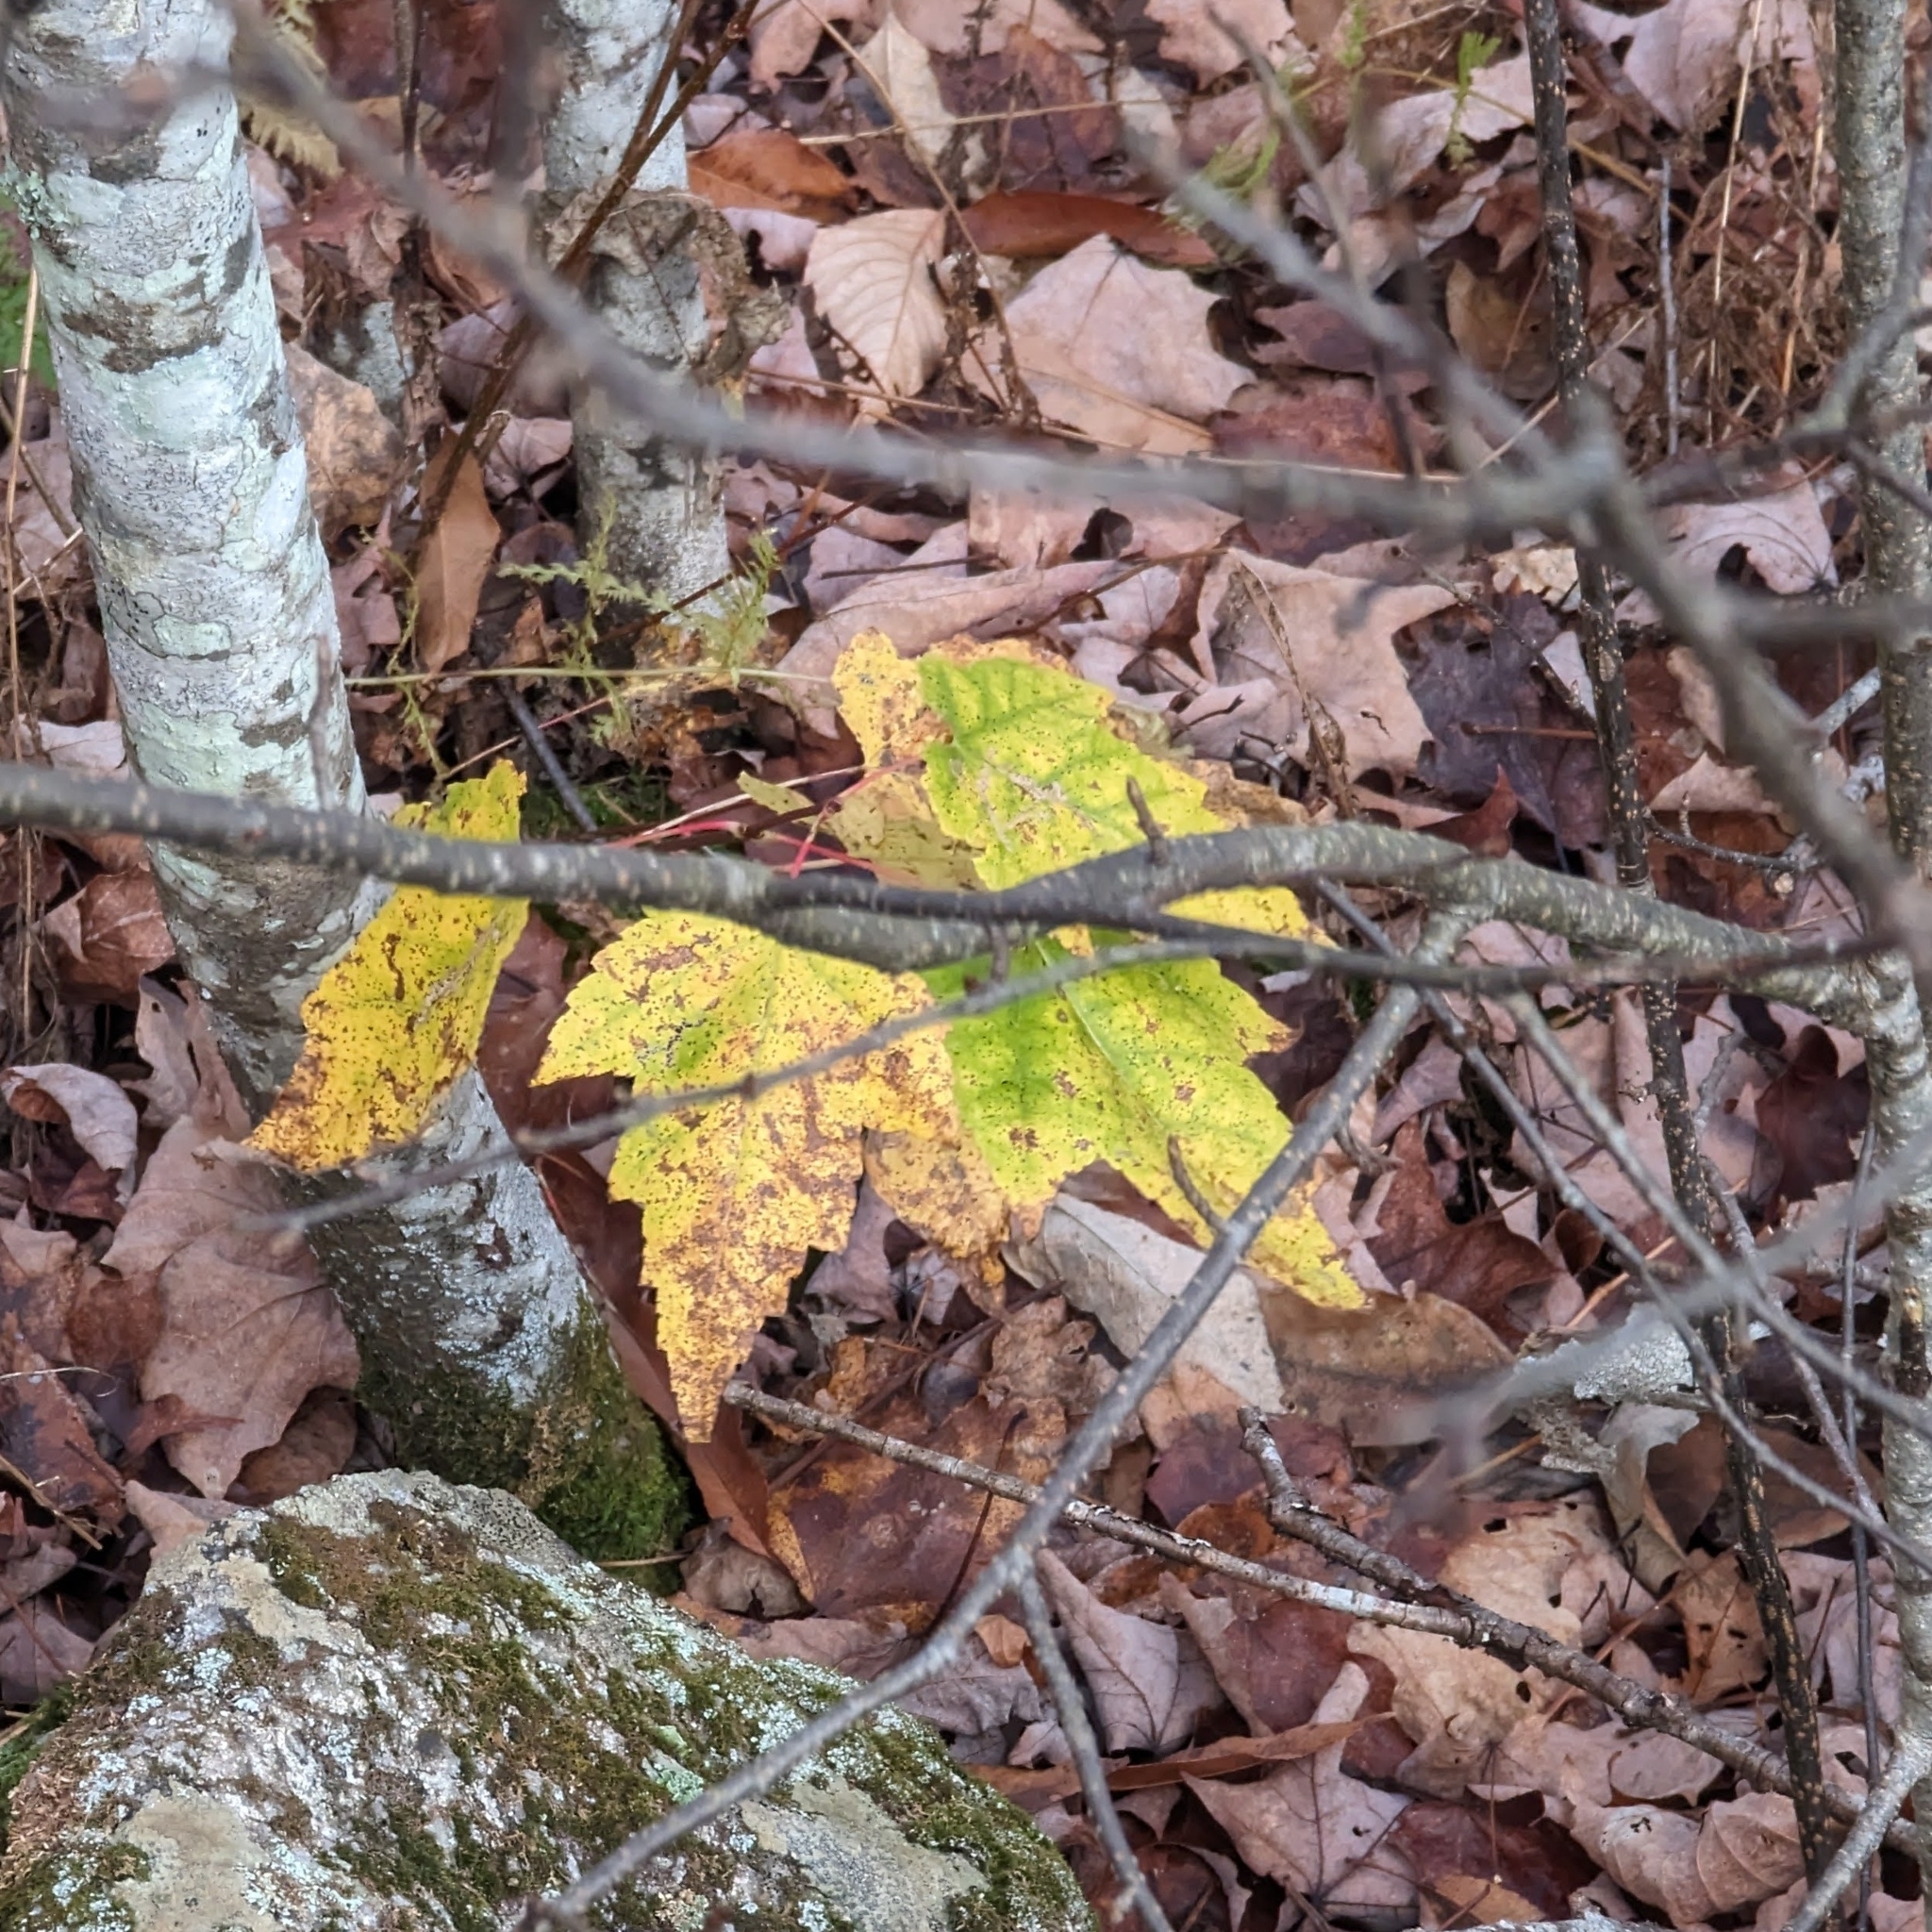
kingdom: Plantae
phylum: Tracheophyta
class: Magnoliopsida
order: Sapindales
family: Sapindaceae
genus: Acer
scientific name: Acer rubrum
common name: Red maple
